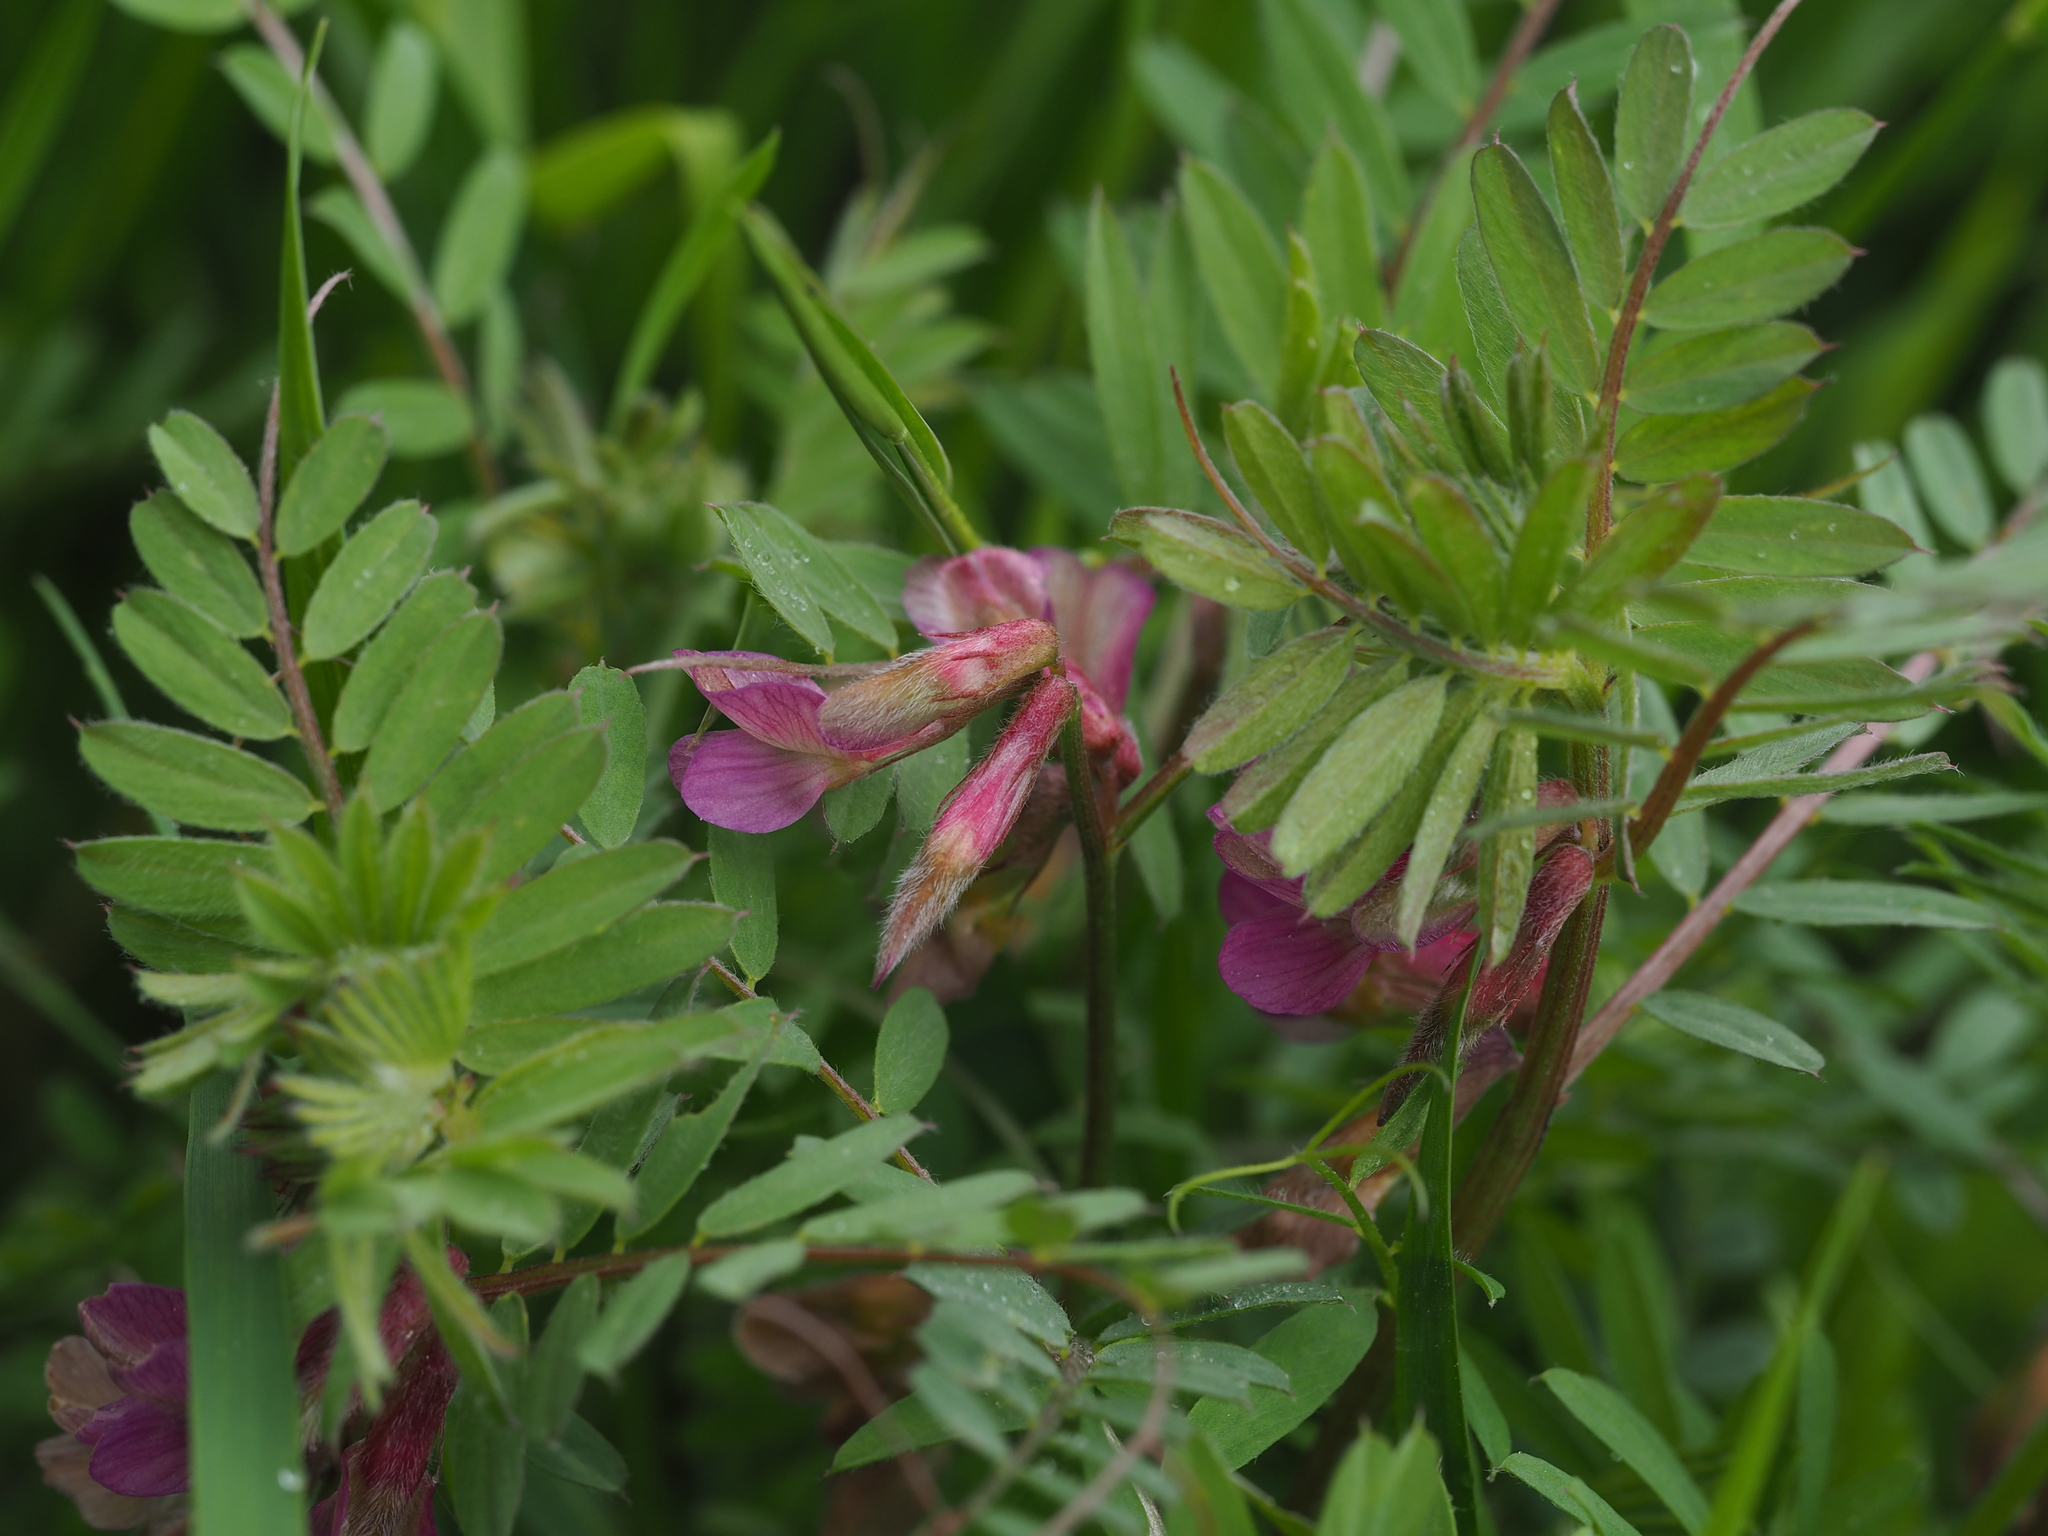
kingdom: Plantae
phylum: Tracheophyta
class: Magnoliopsida
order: Fabales
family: Fabaceae
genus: Vicia
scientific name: Vicia pannonica
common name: Hungarian vetch
